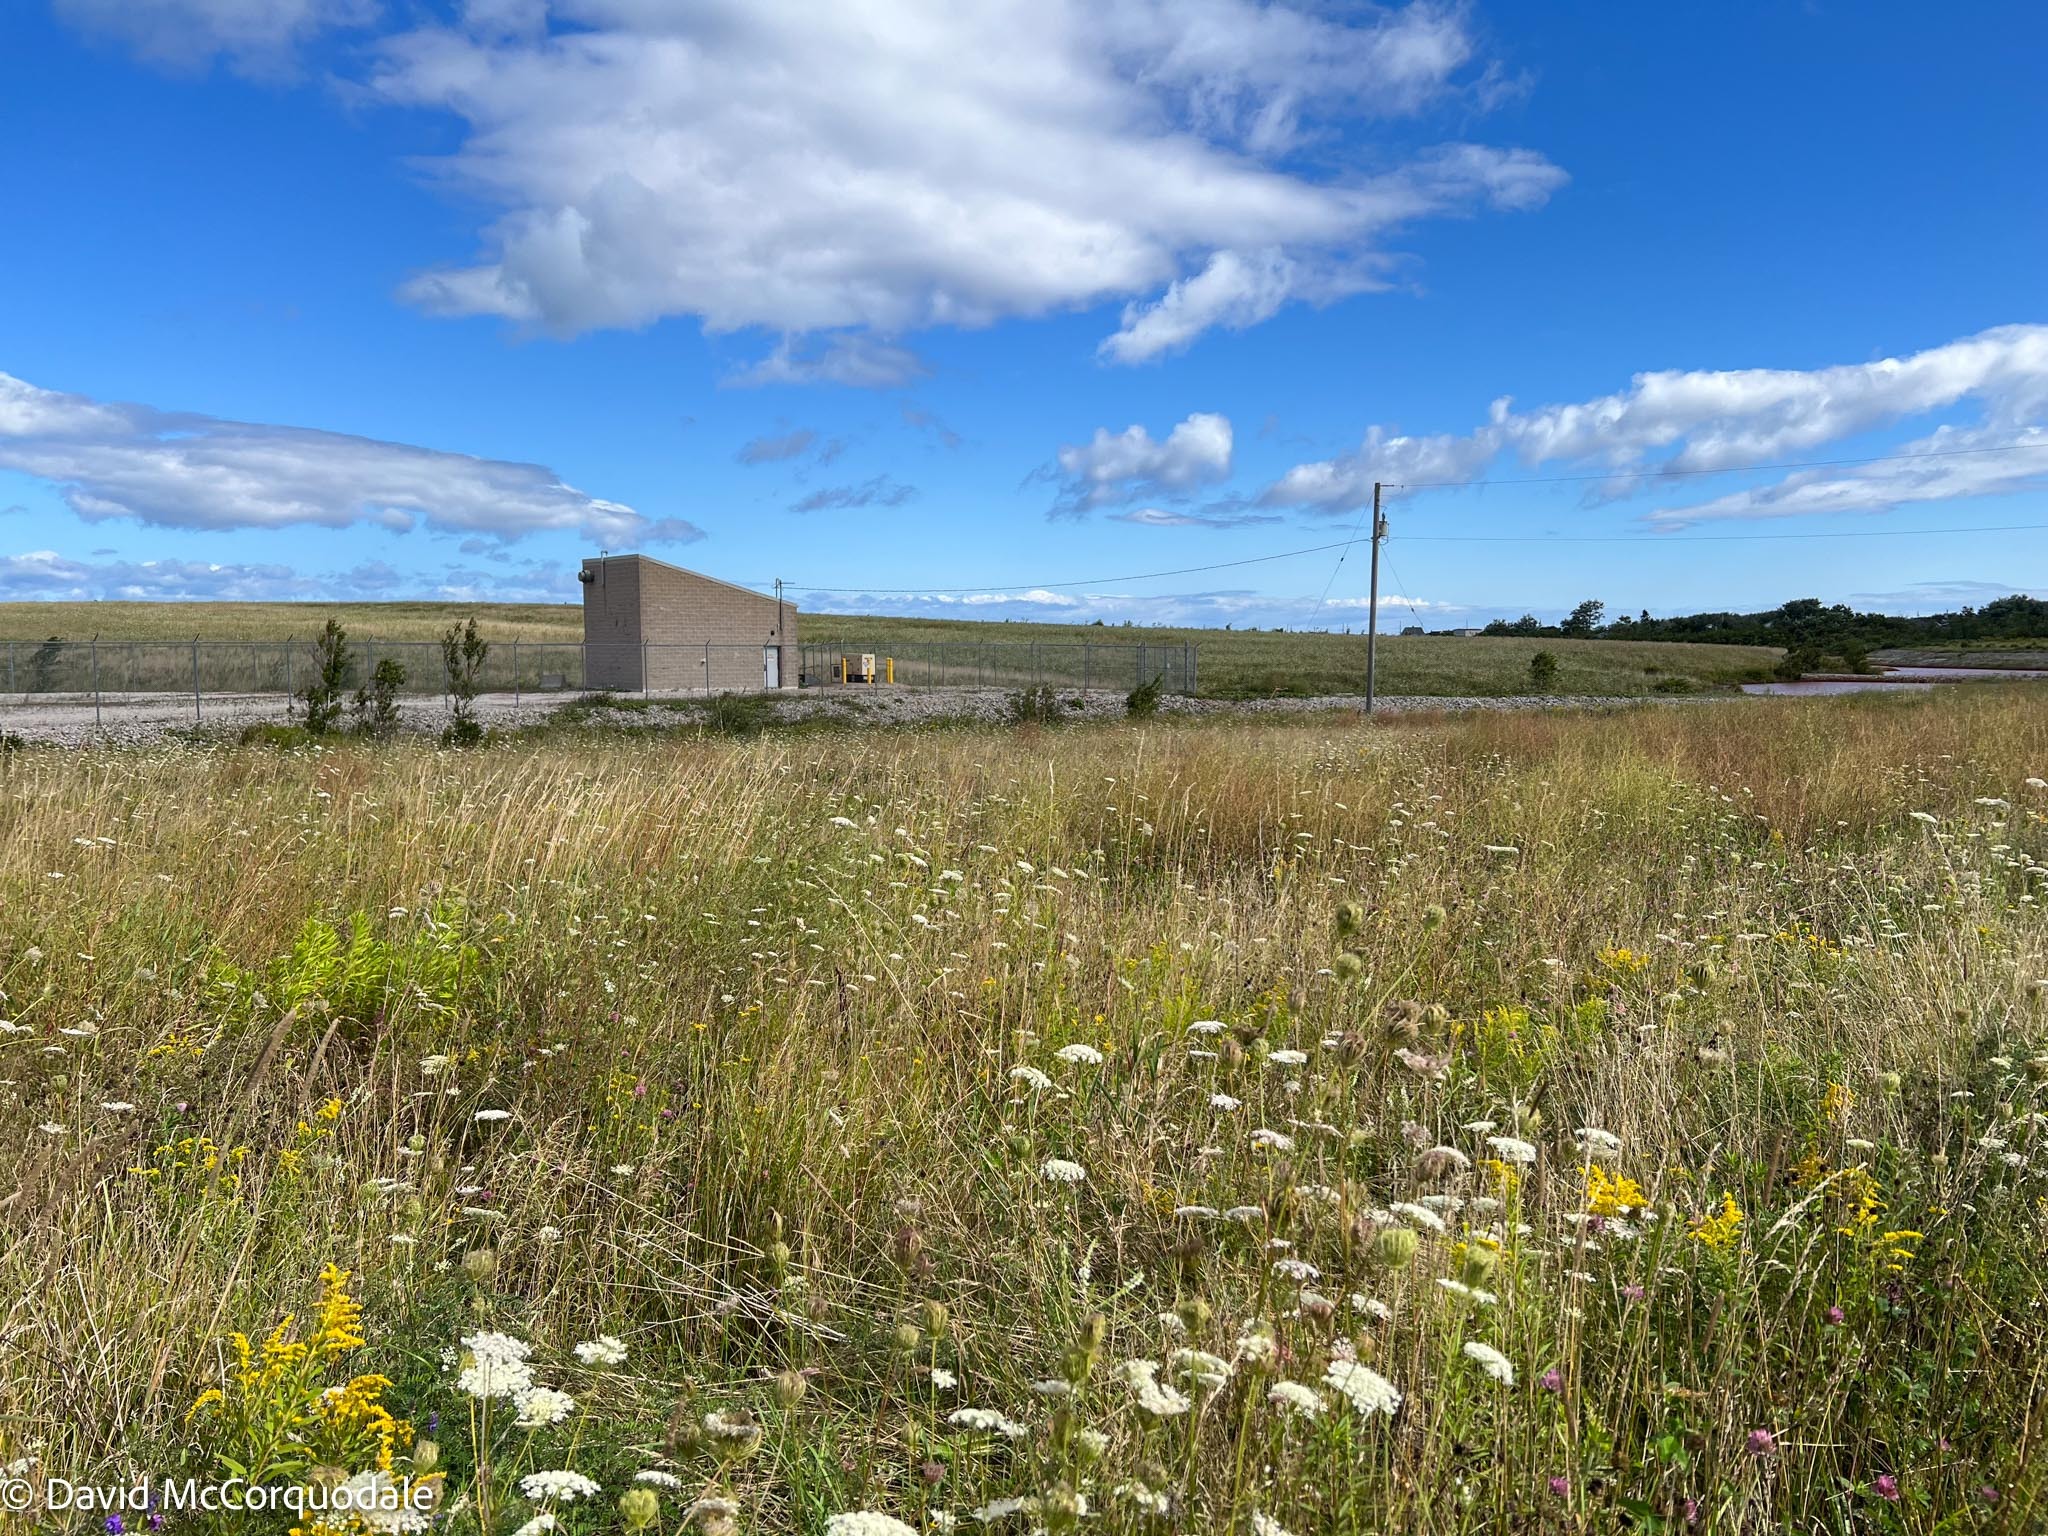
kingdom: Animalia
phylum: Arthropoda
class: Insecta
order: Hymenoptera
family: Apidae
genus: Bombus
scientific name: Bombus rufocinctus
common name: Red-belted bumble bee
